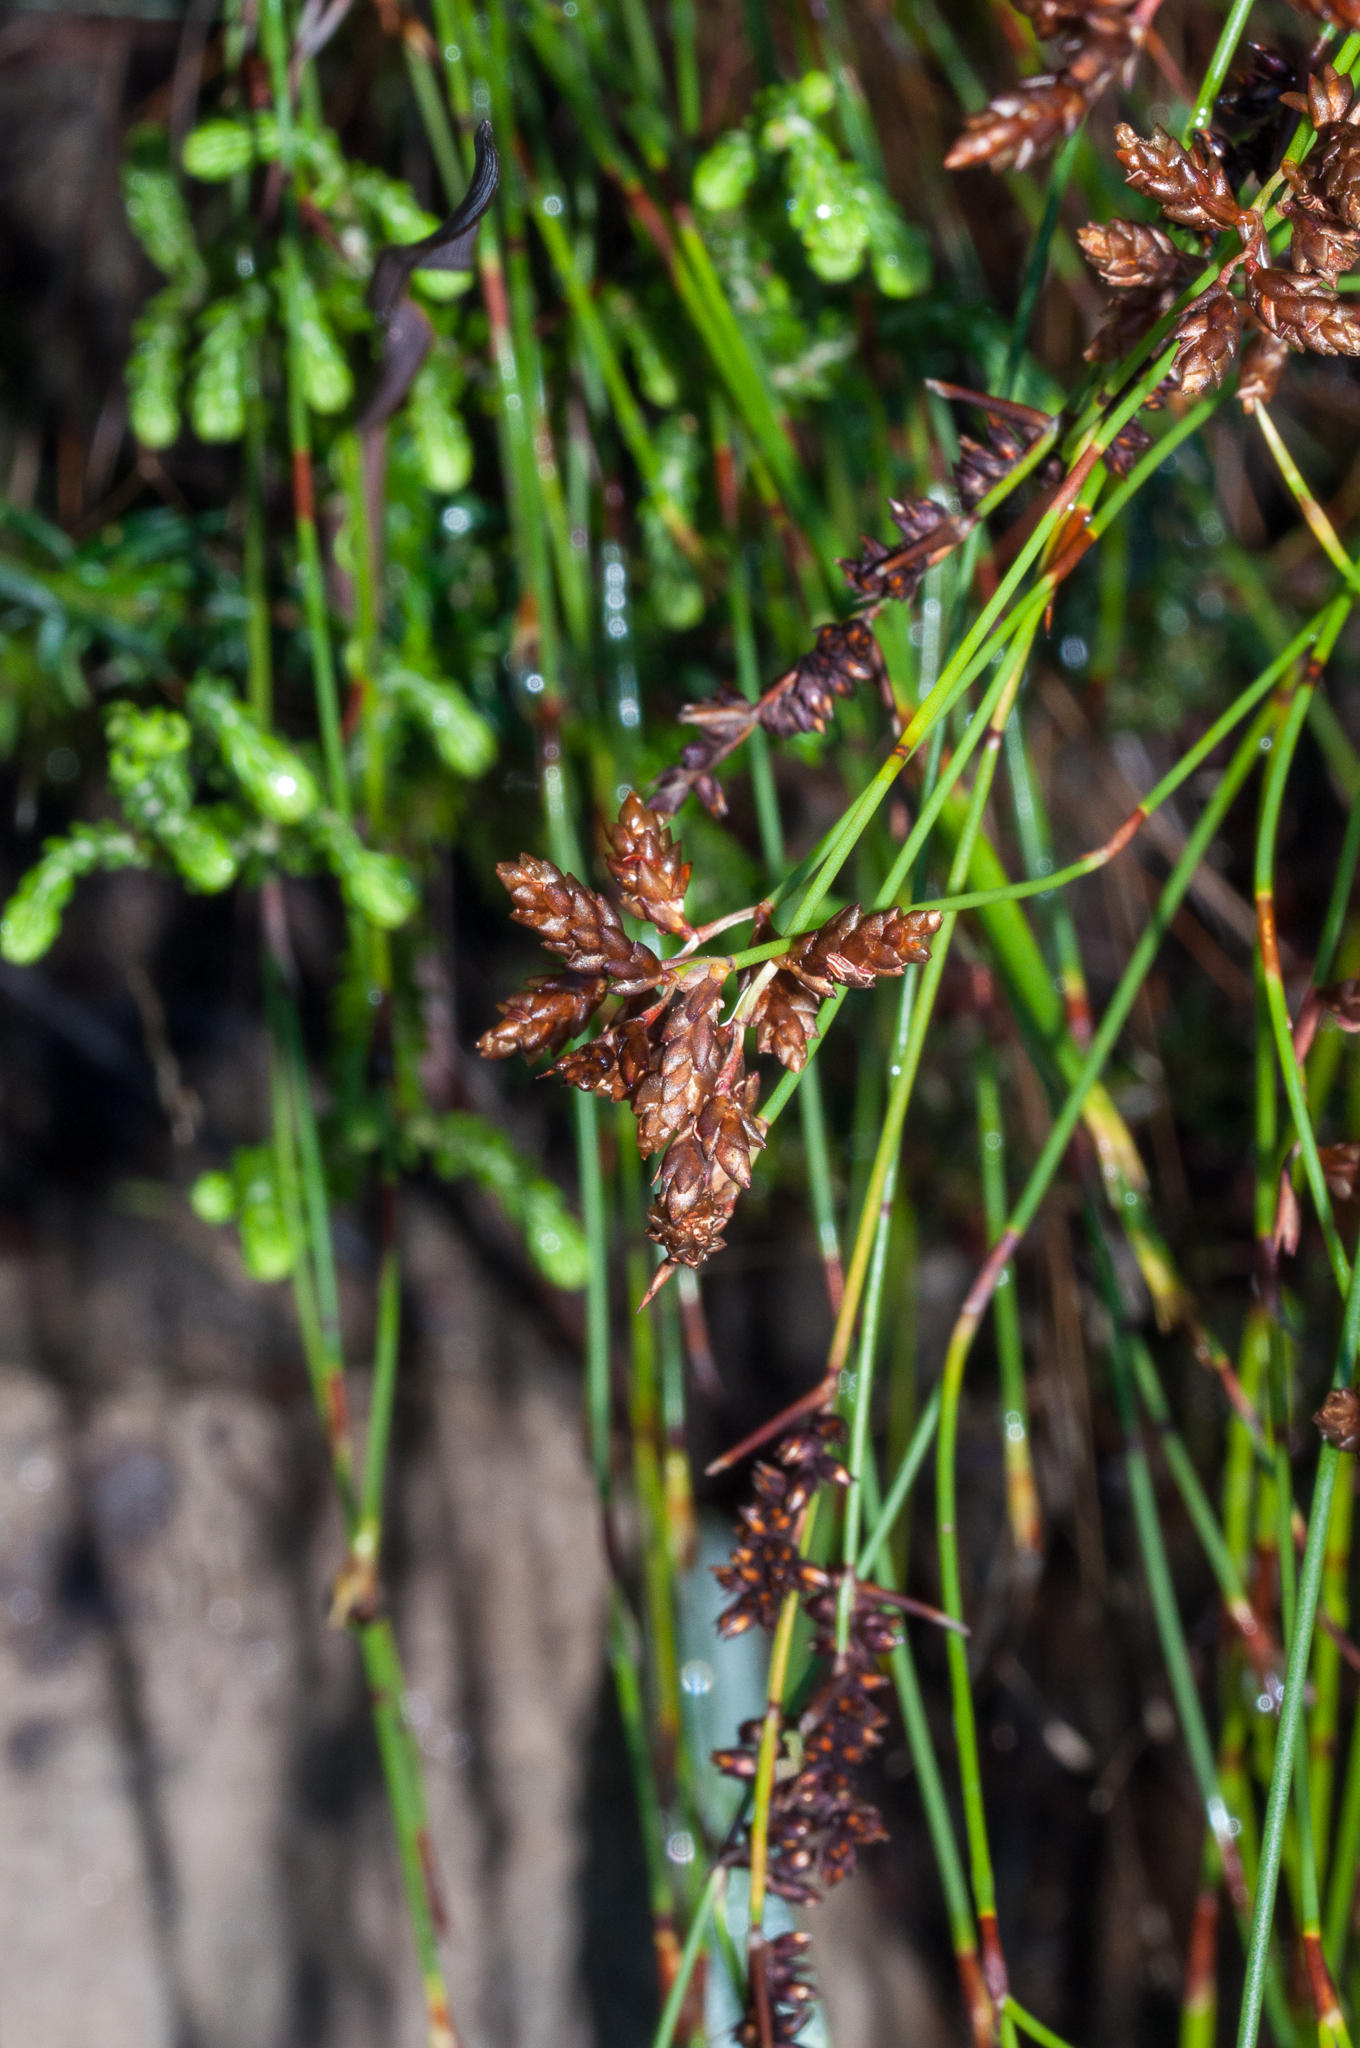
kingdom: Plantae
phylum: Tracheophyta
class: Liliopsida
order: Poales
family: Restionaceae
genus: Mastersiella
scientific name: Mastersiella digitata
